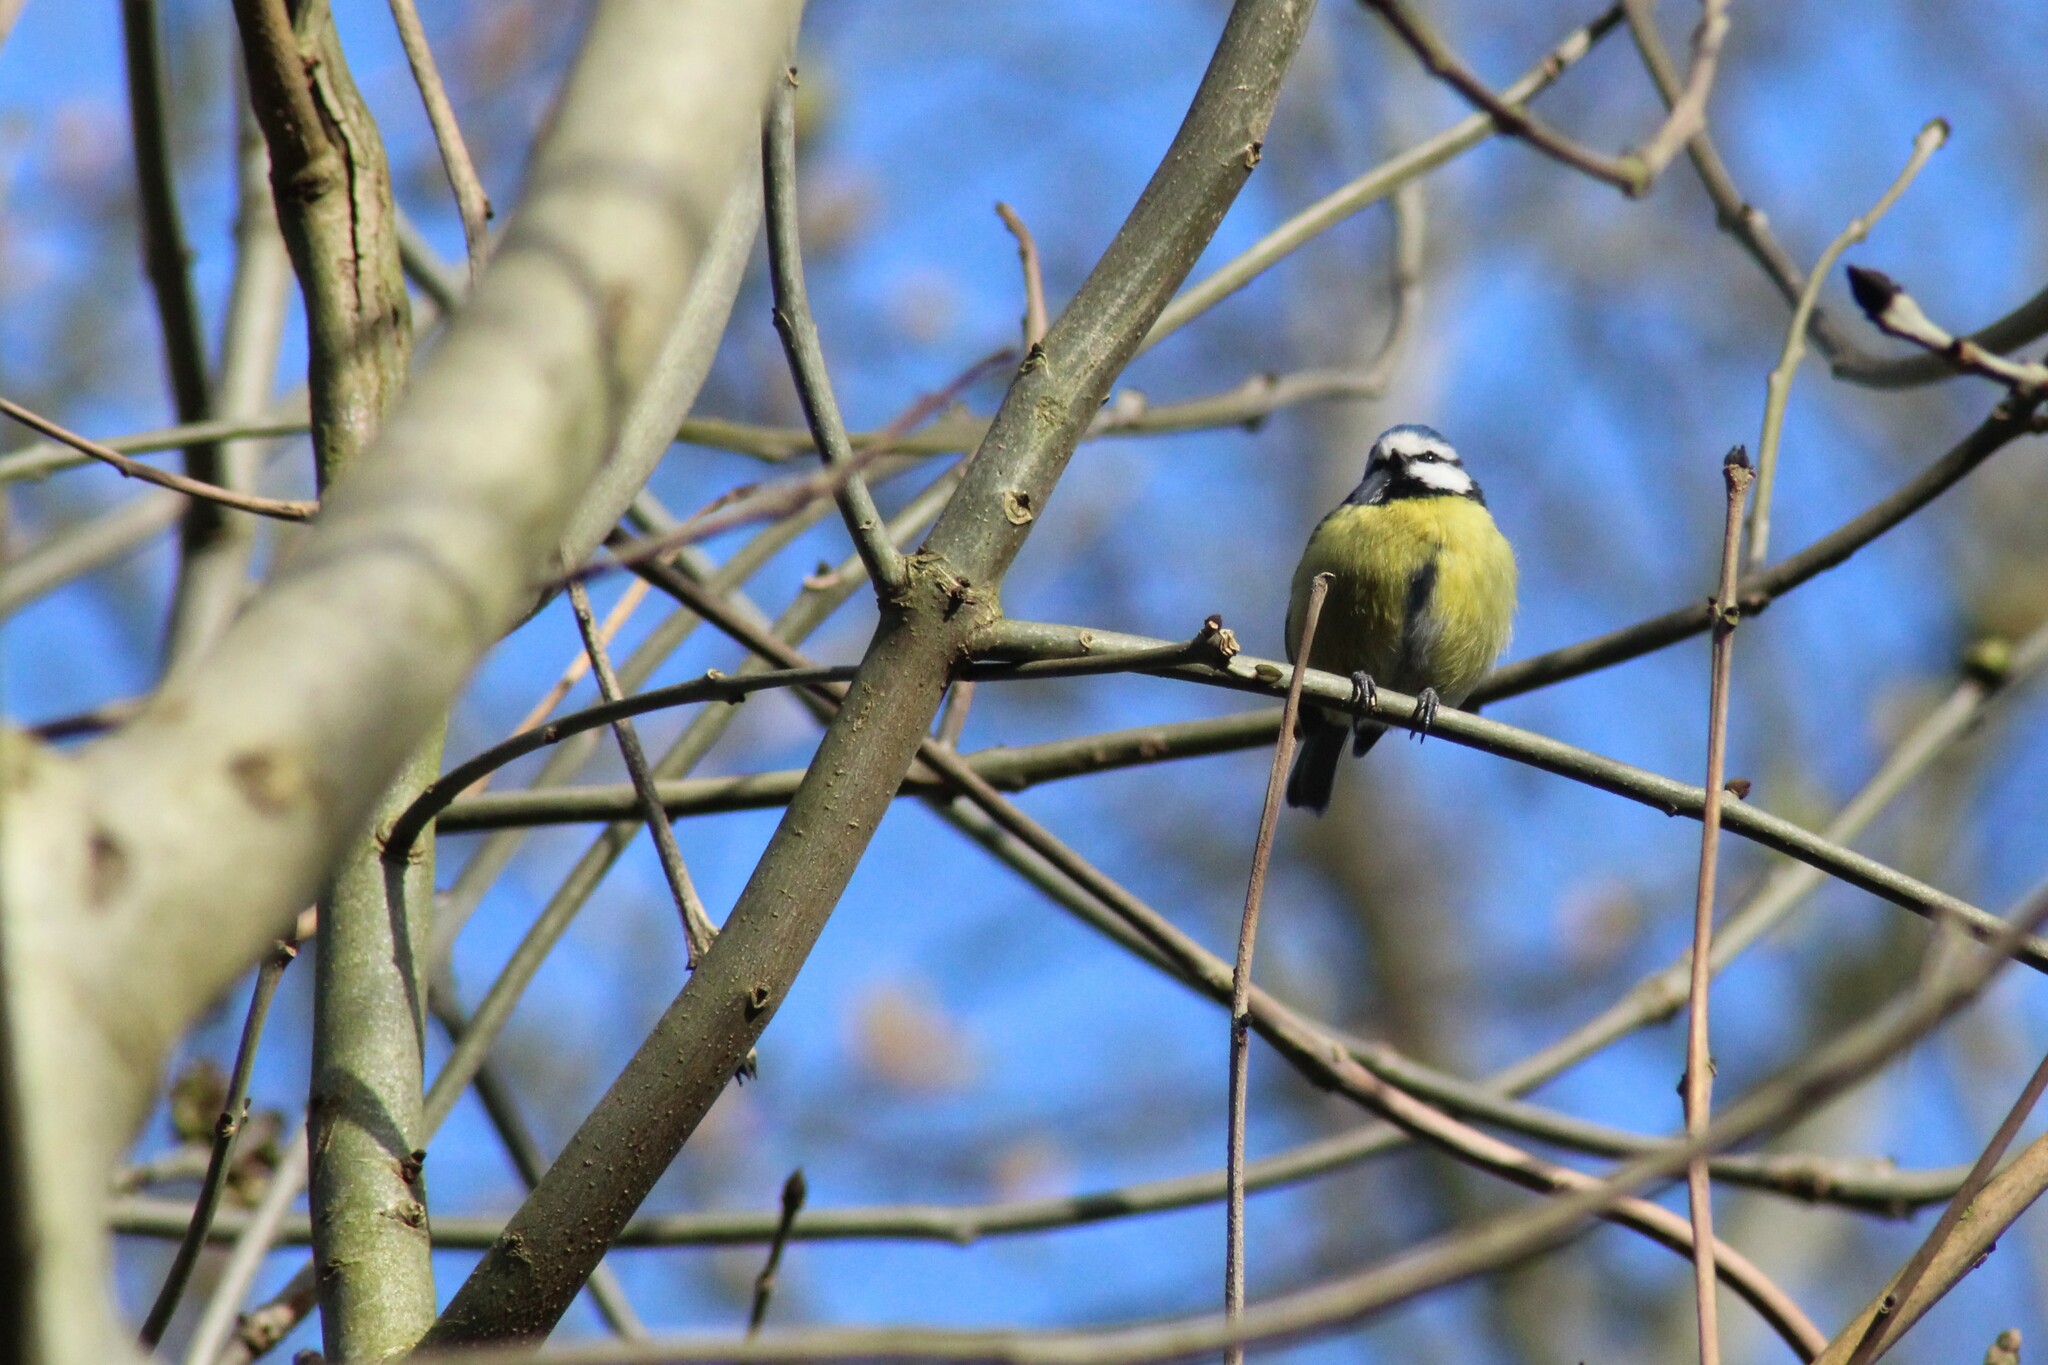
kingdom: Animalia
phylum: Chordata
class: Aves
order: Passeriformes
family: Paridae
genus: Cyanistes
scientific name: Cyanistes caeruleus
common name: Eurasian blue tit
